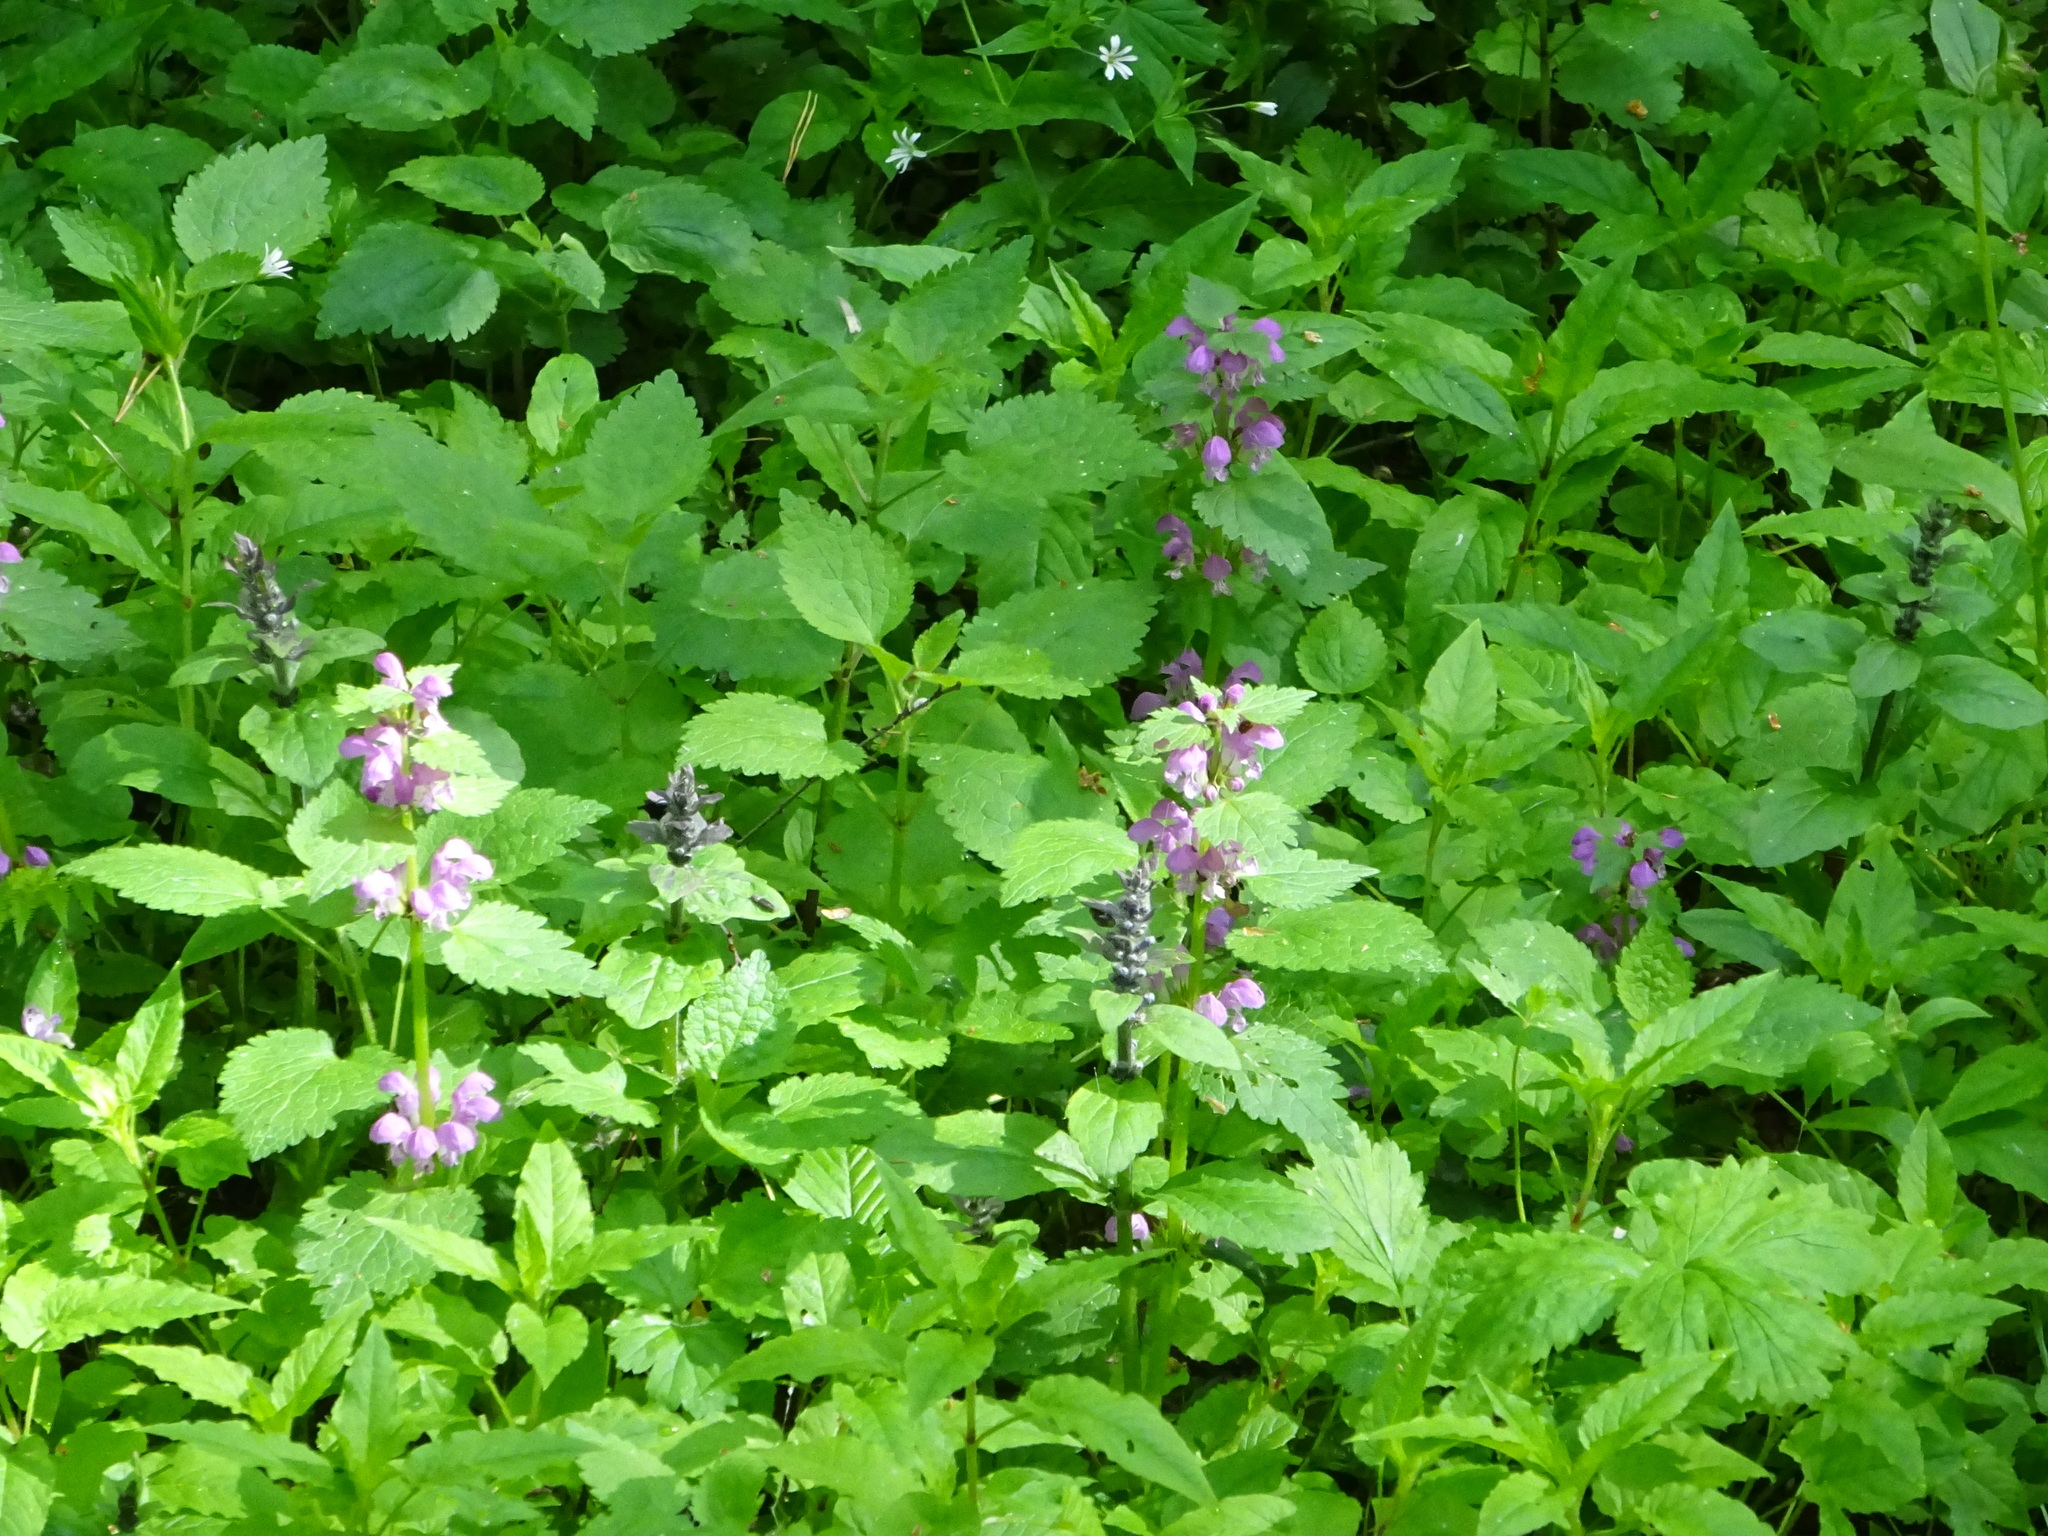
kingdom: Plantae
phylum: Tracheophyta
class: Magnoliopsida
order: Lamiales
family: Lamiaceae
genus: Lamium
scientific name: Lamium maculatum
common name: Spotted dead-nettle
